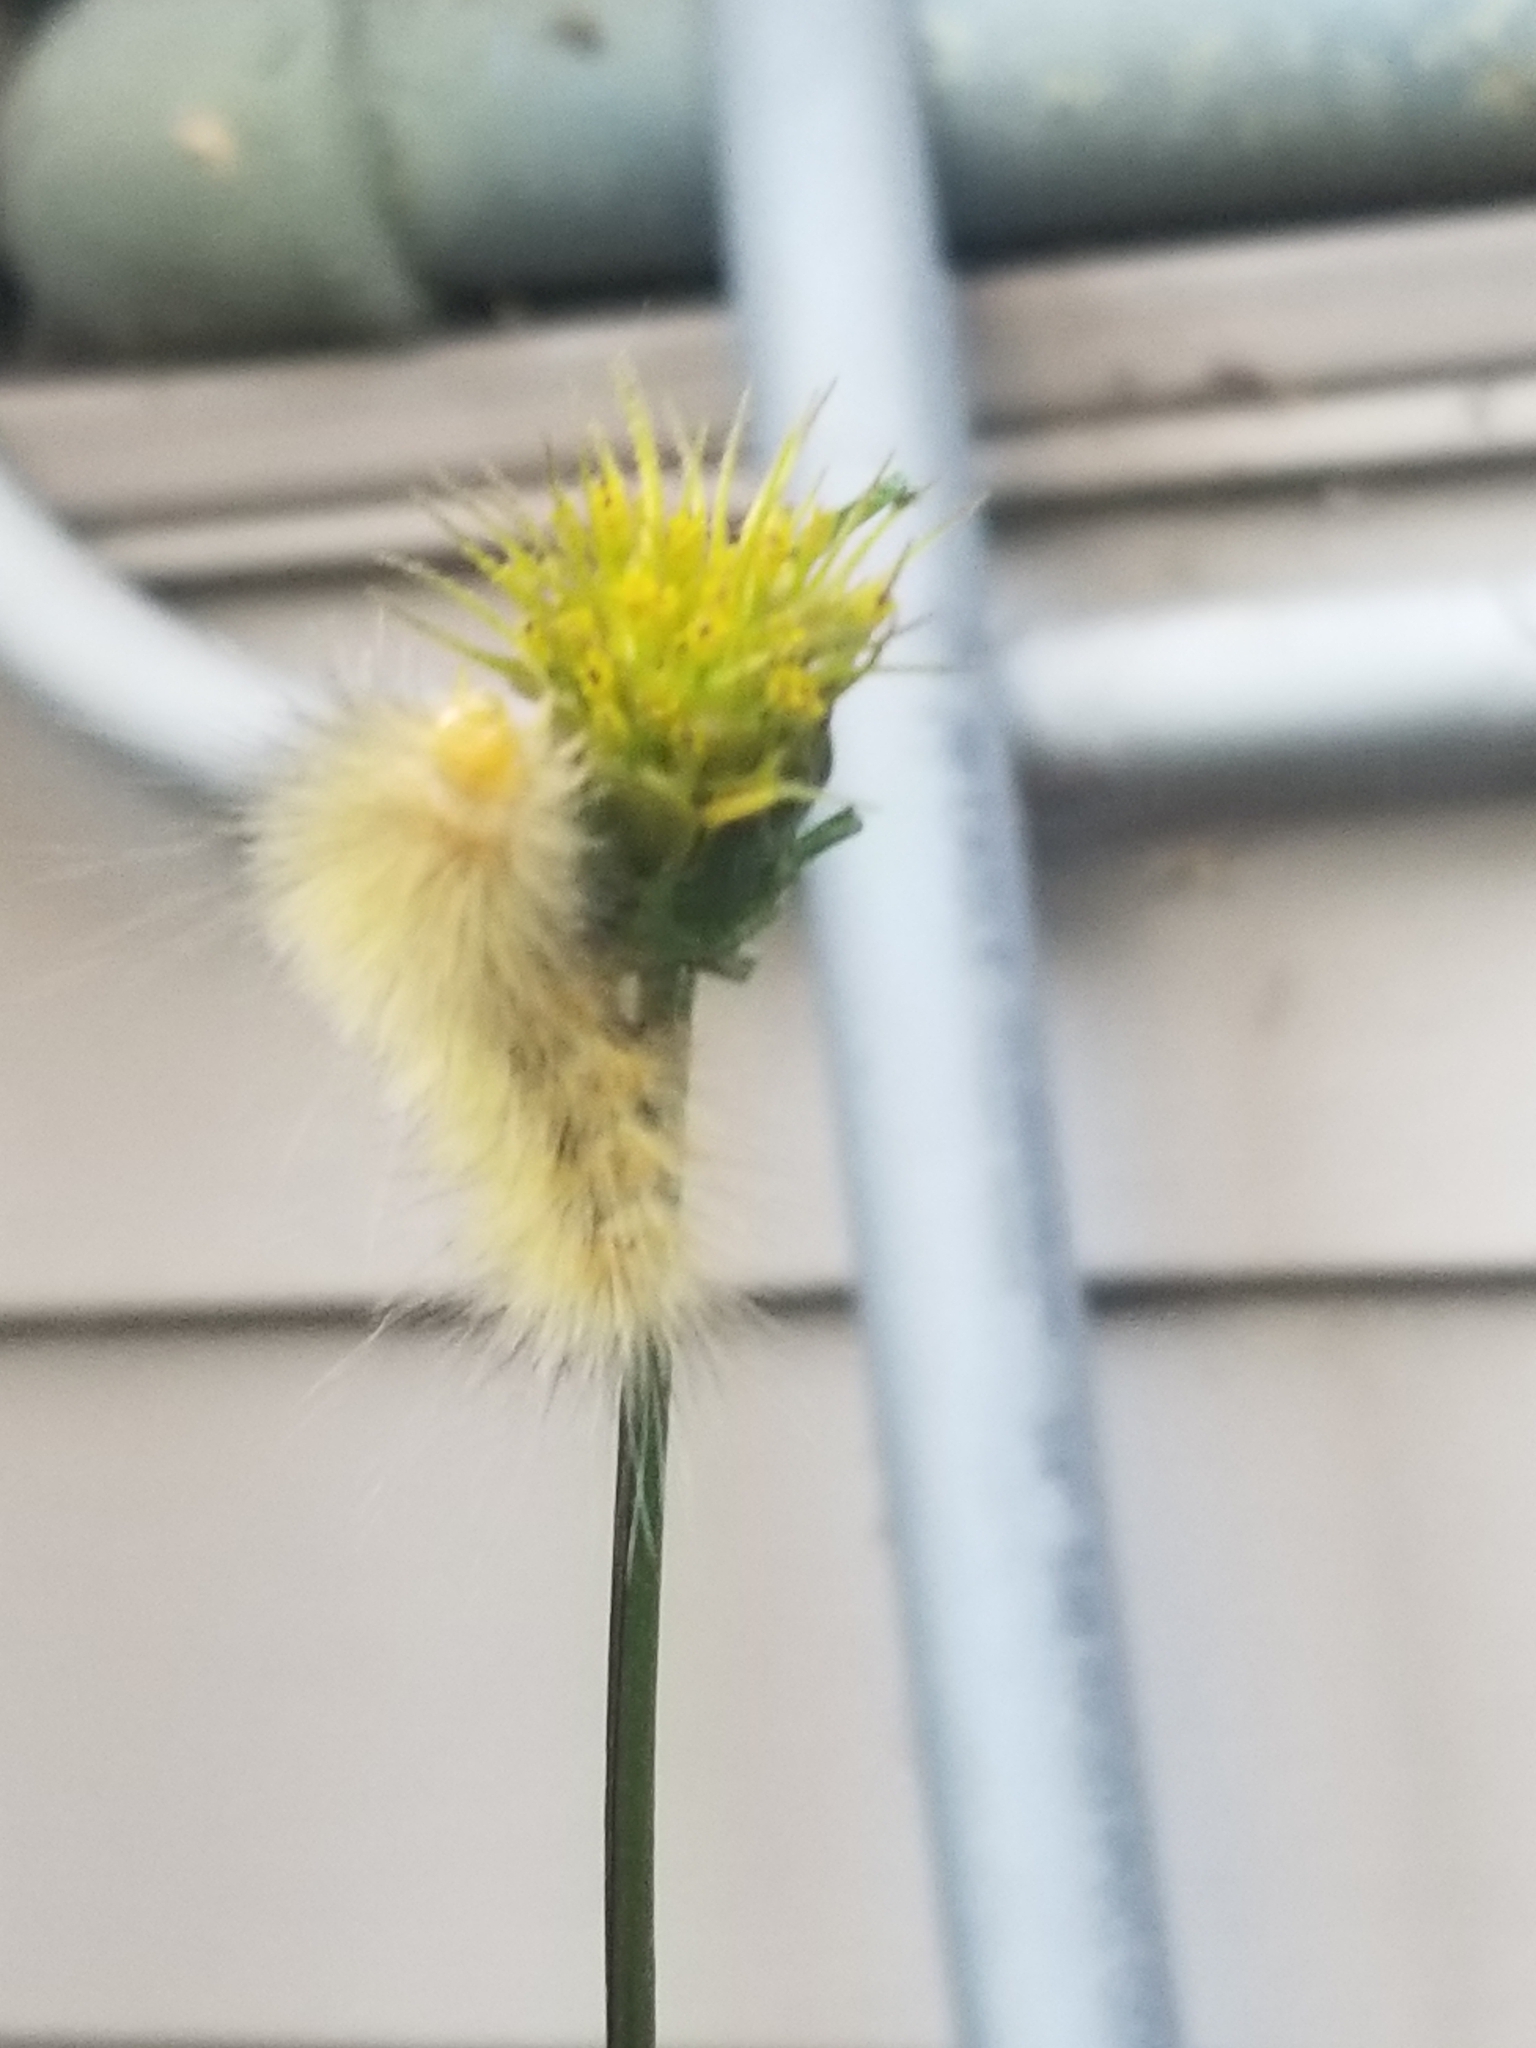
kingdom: Animalia
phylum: Arthropoda
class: Insecta
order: Lepidoptera
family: Erebidae
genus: Spilosoma
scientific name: Spilosoma virginica
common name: Virginia tiger moth
